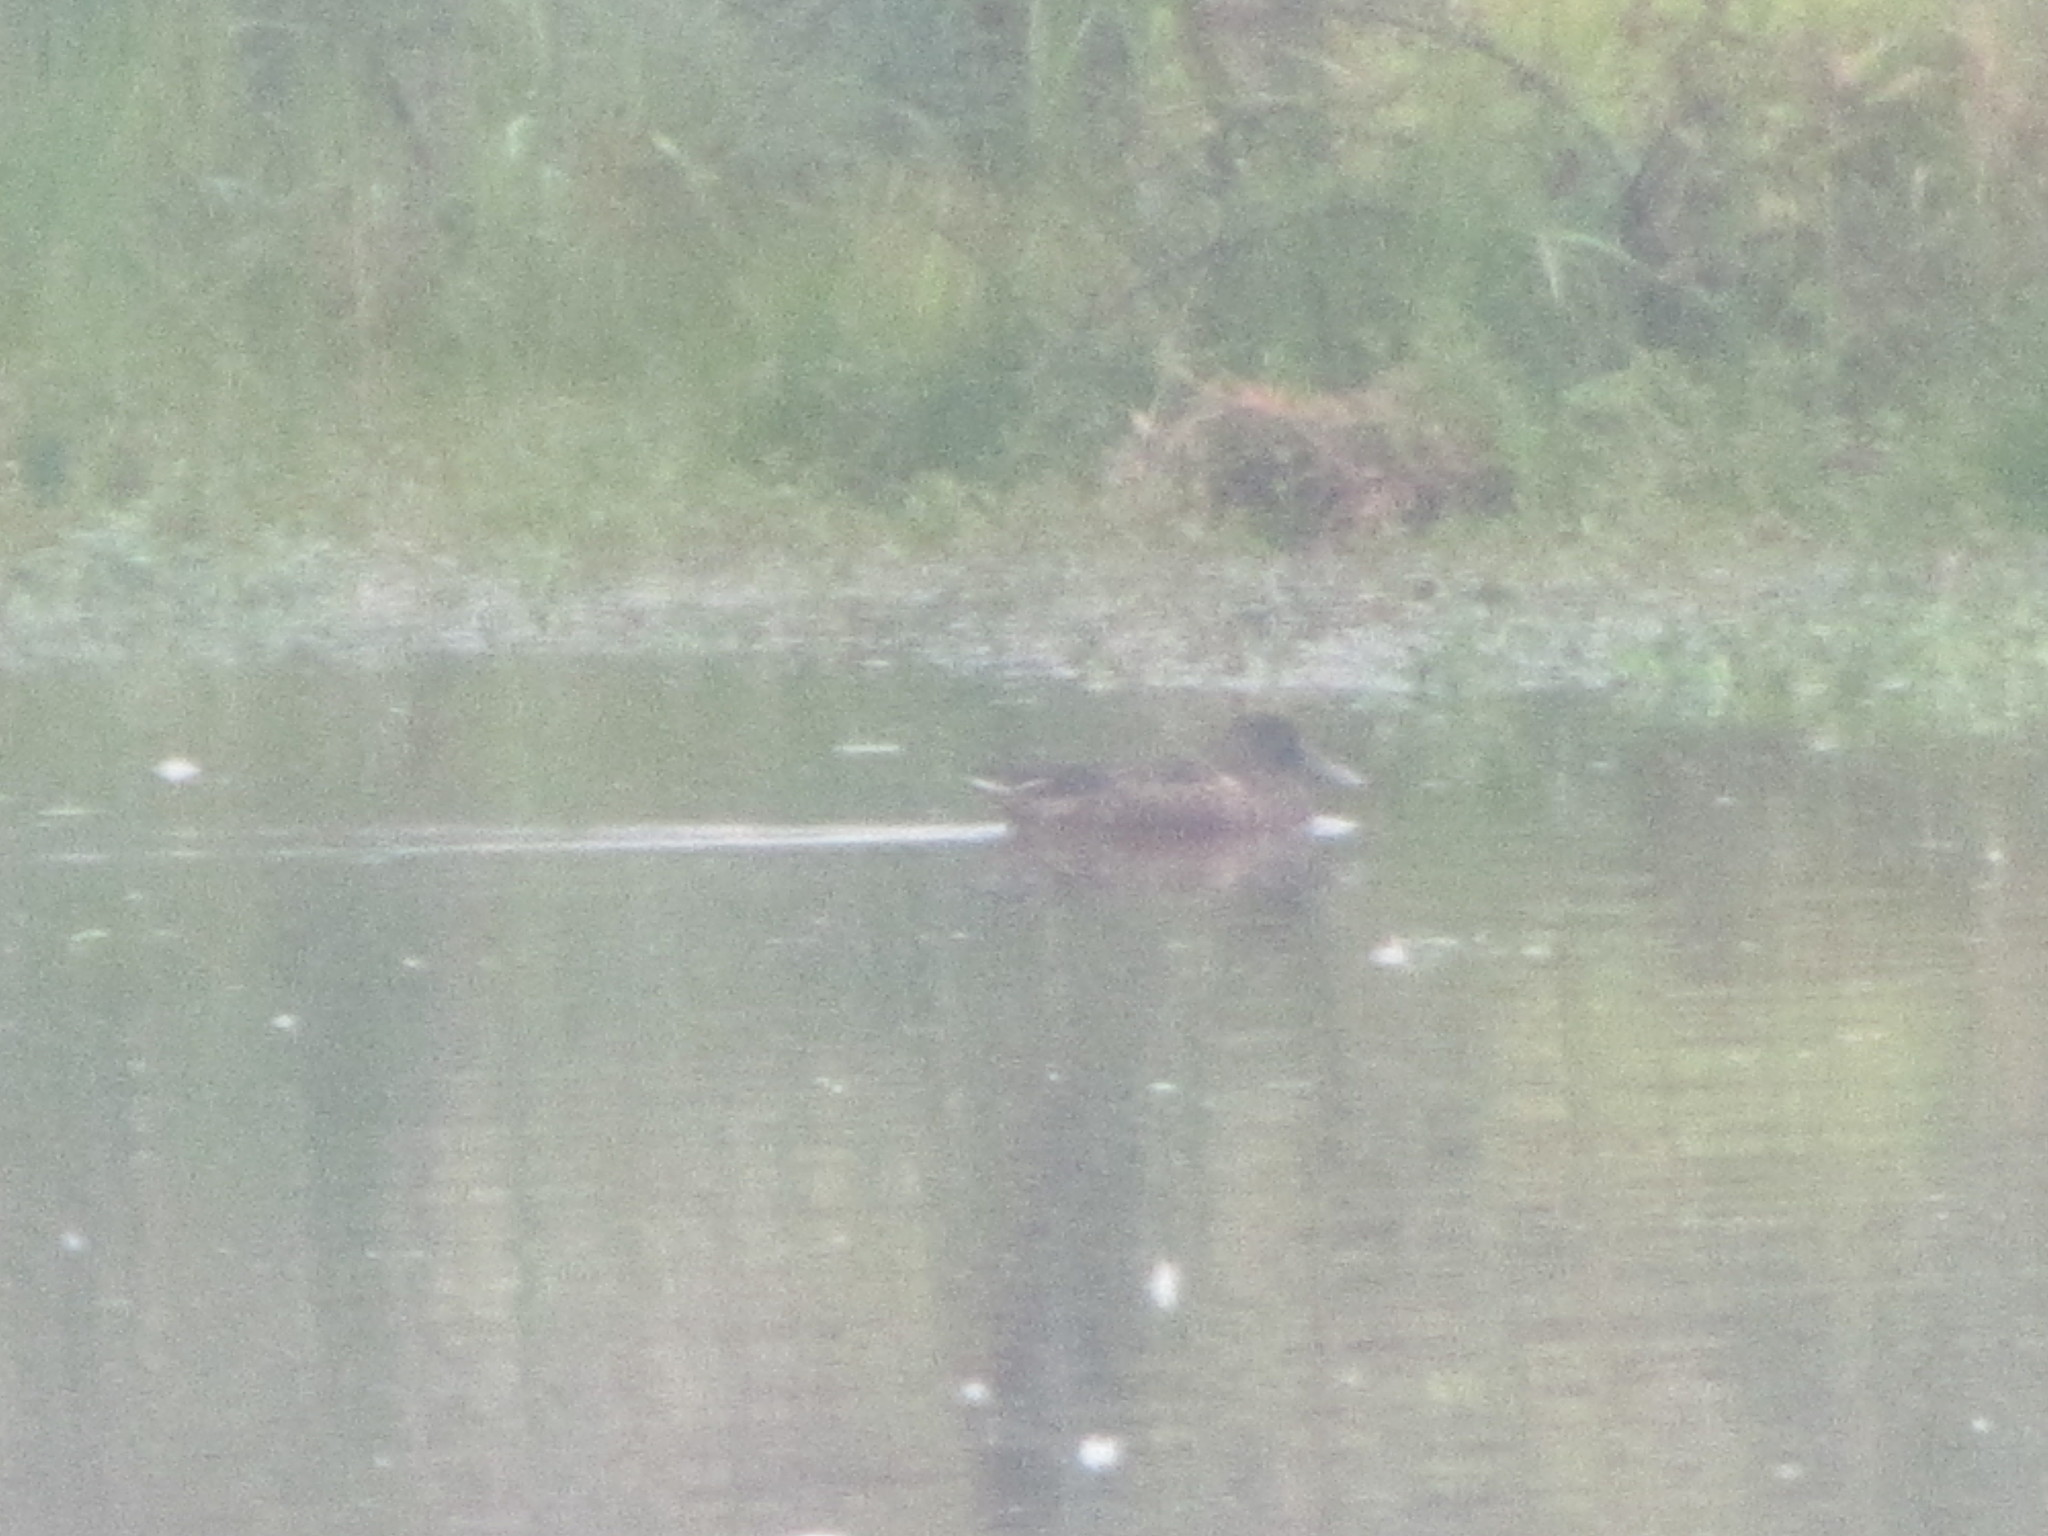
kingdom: Animalia
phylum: Chordata
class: Aves
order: Anseriformes
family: Anatidae
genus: Spatula
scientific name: Spatula clypeata
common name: Northern shoveler
